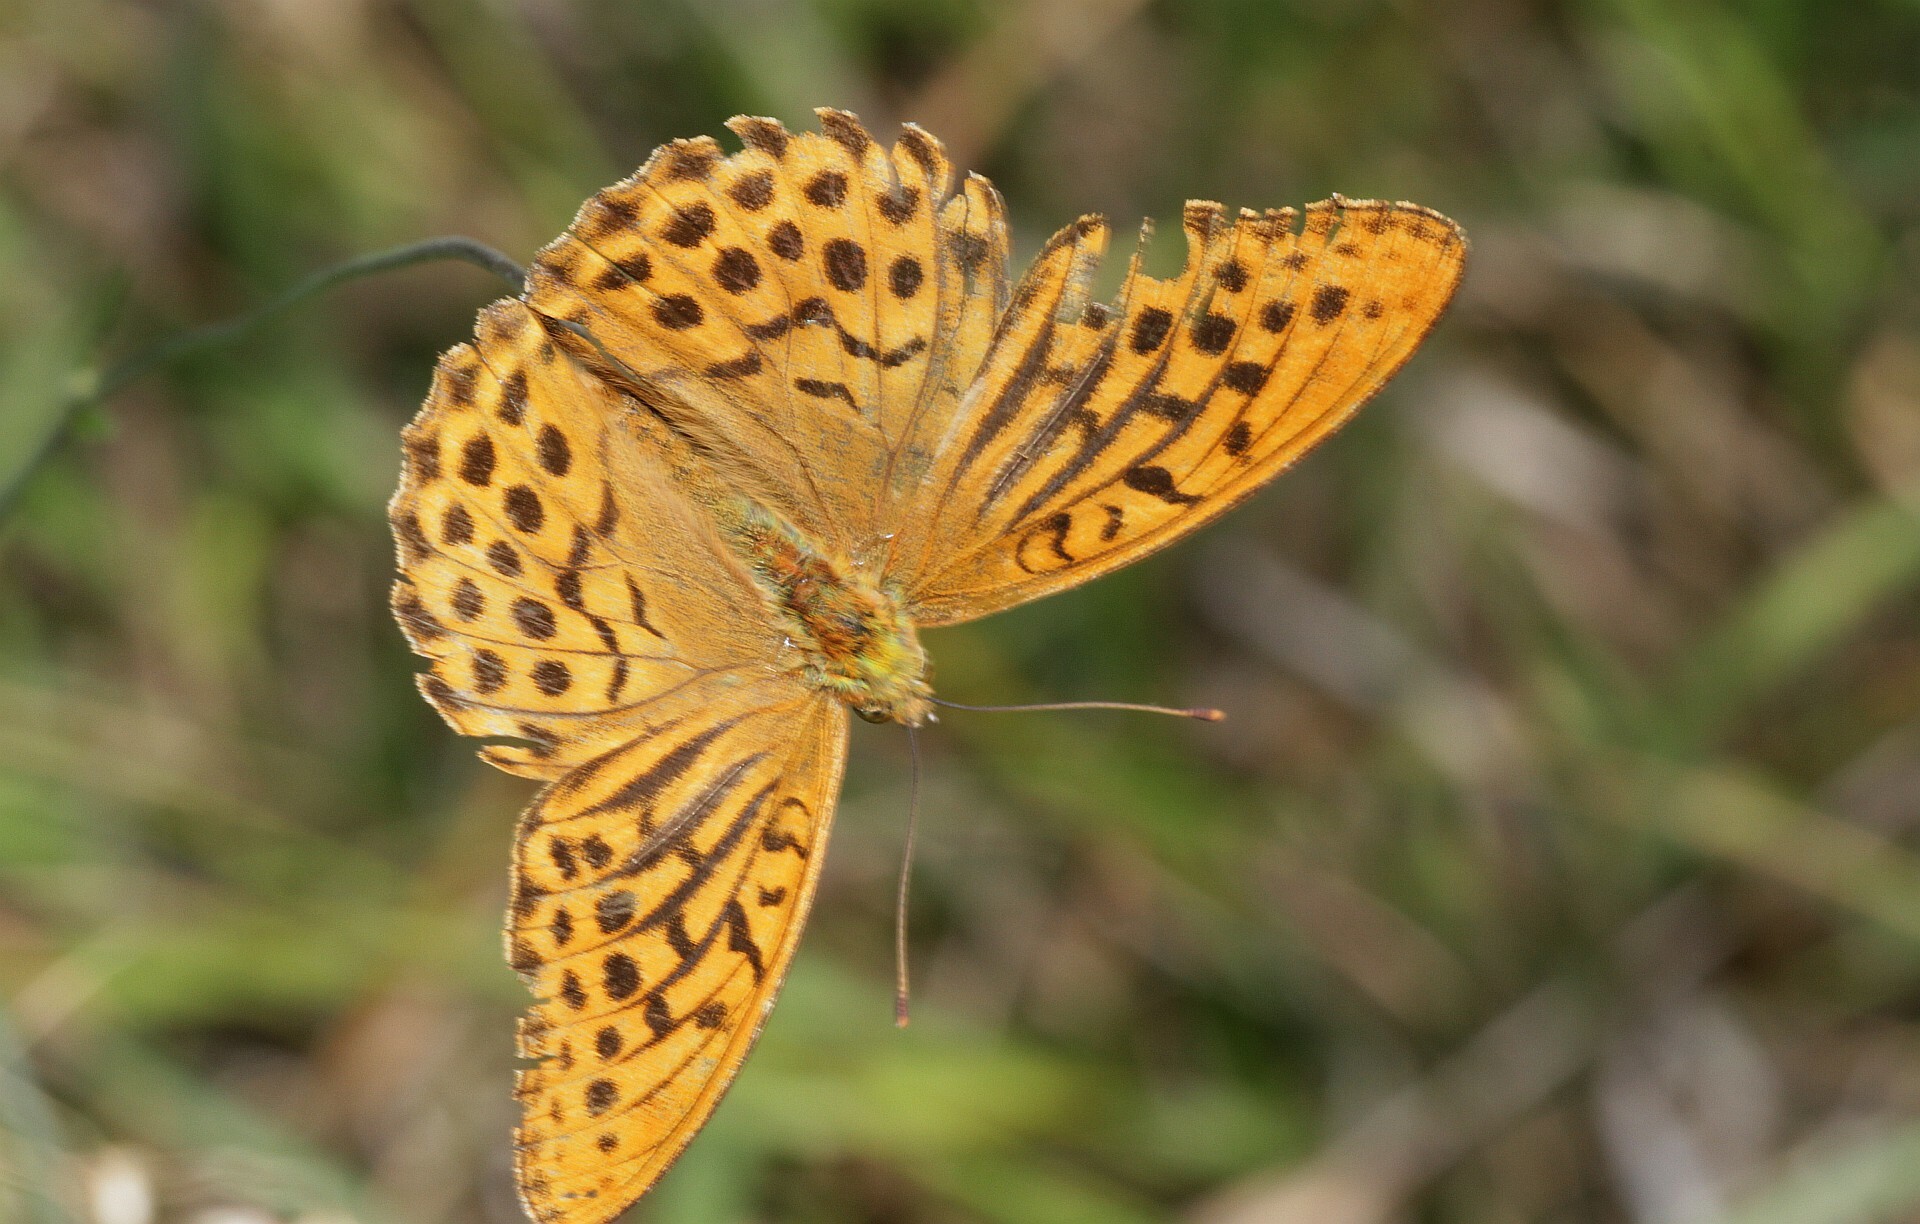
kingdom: Animalia
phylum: Arthropoda
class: Insecta
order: Lepidoptera
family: Nymphalidae
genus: Argynnis
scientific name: Argynnis paphia
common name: Silver-washed fritillary
